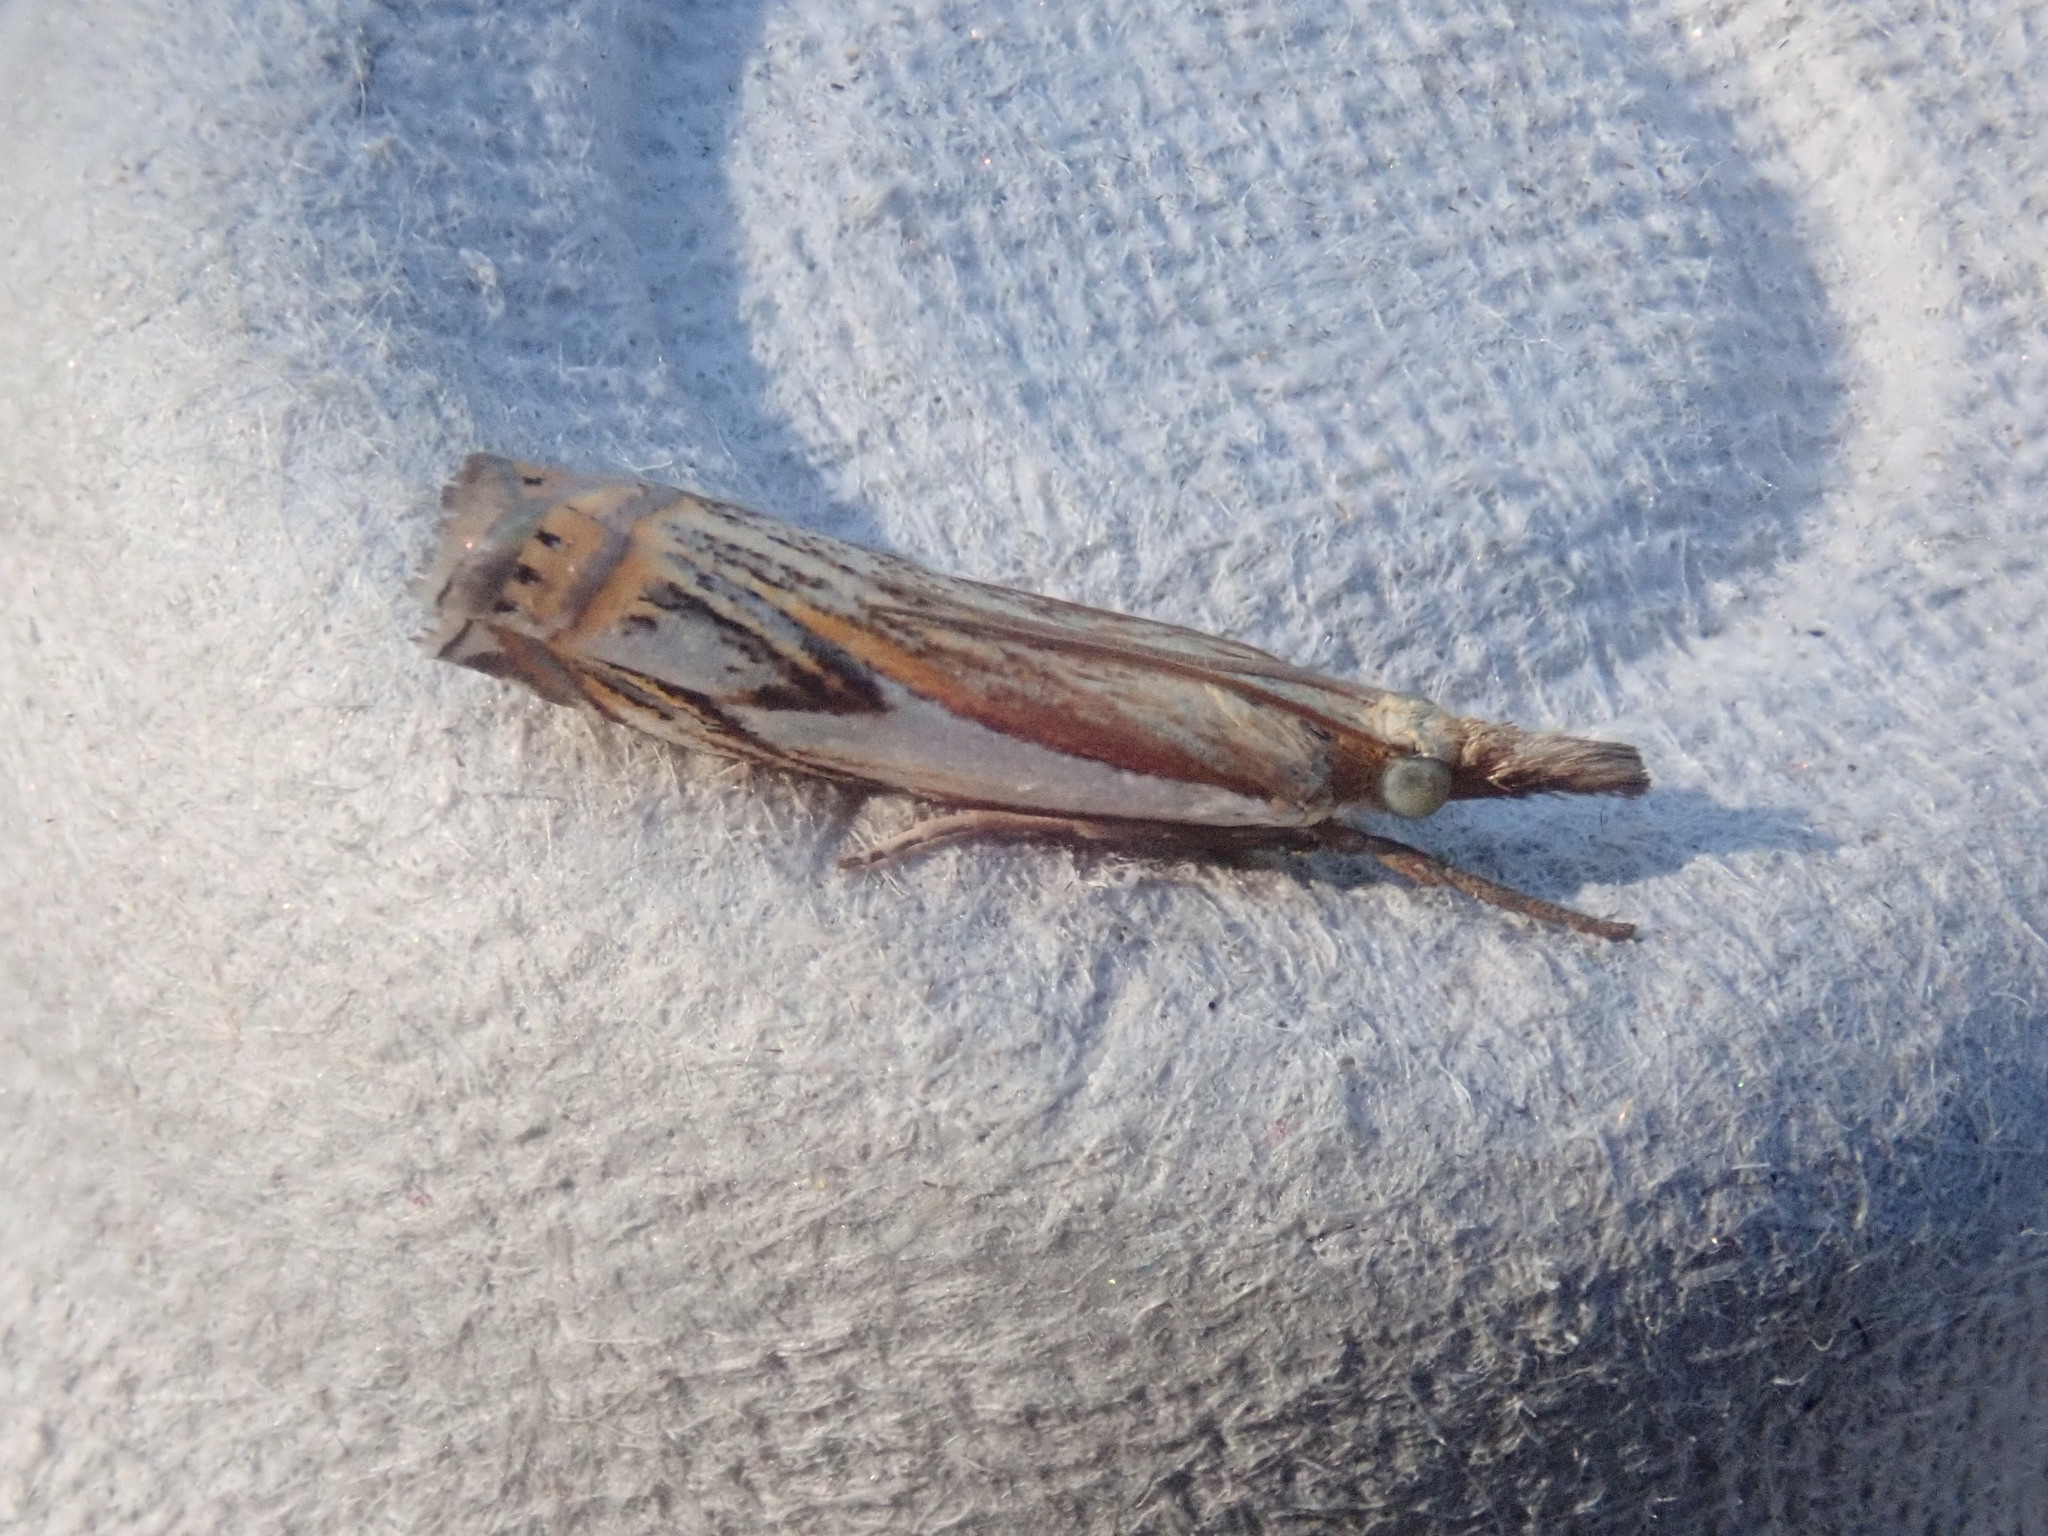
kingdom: Animalia
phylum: Arthropoda
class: Insecta
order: Lepidoptera
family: Crambidae
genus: Crambus
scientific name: Crambus agitatellus
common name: Double-banded grass-veneer
